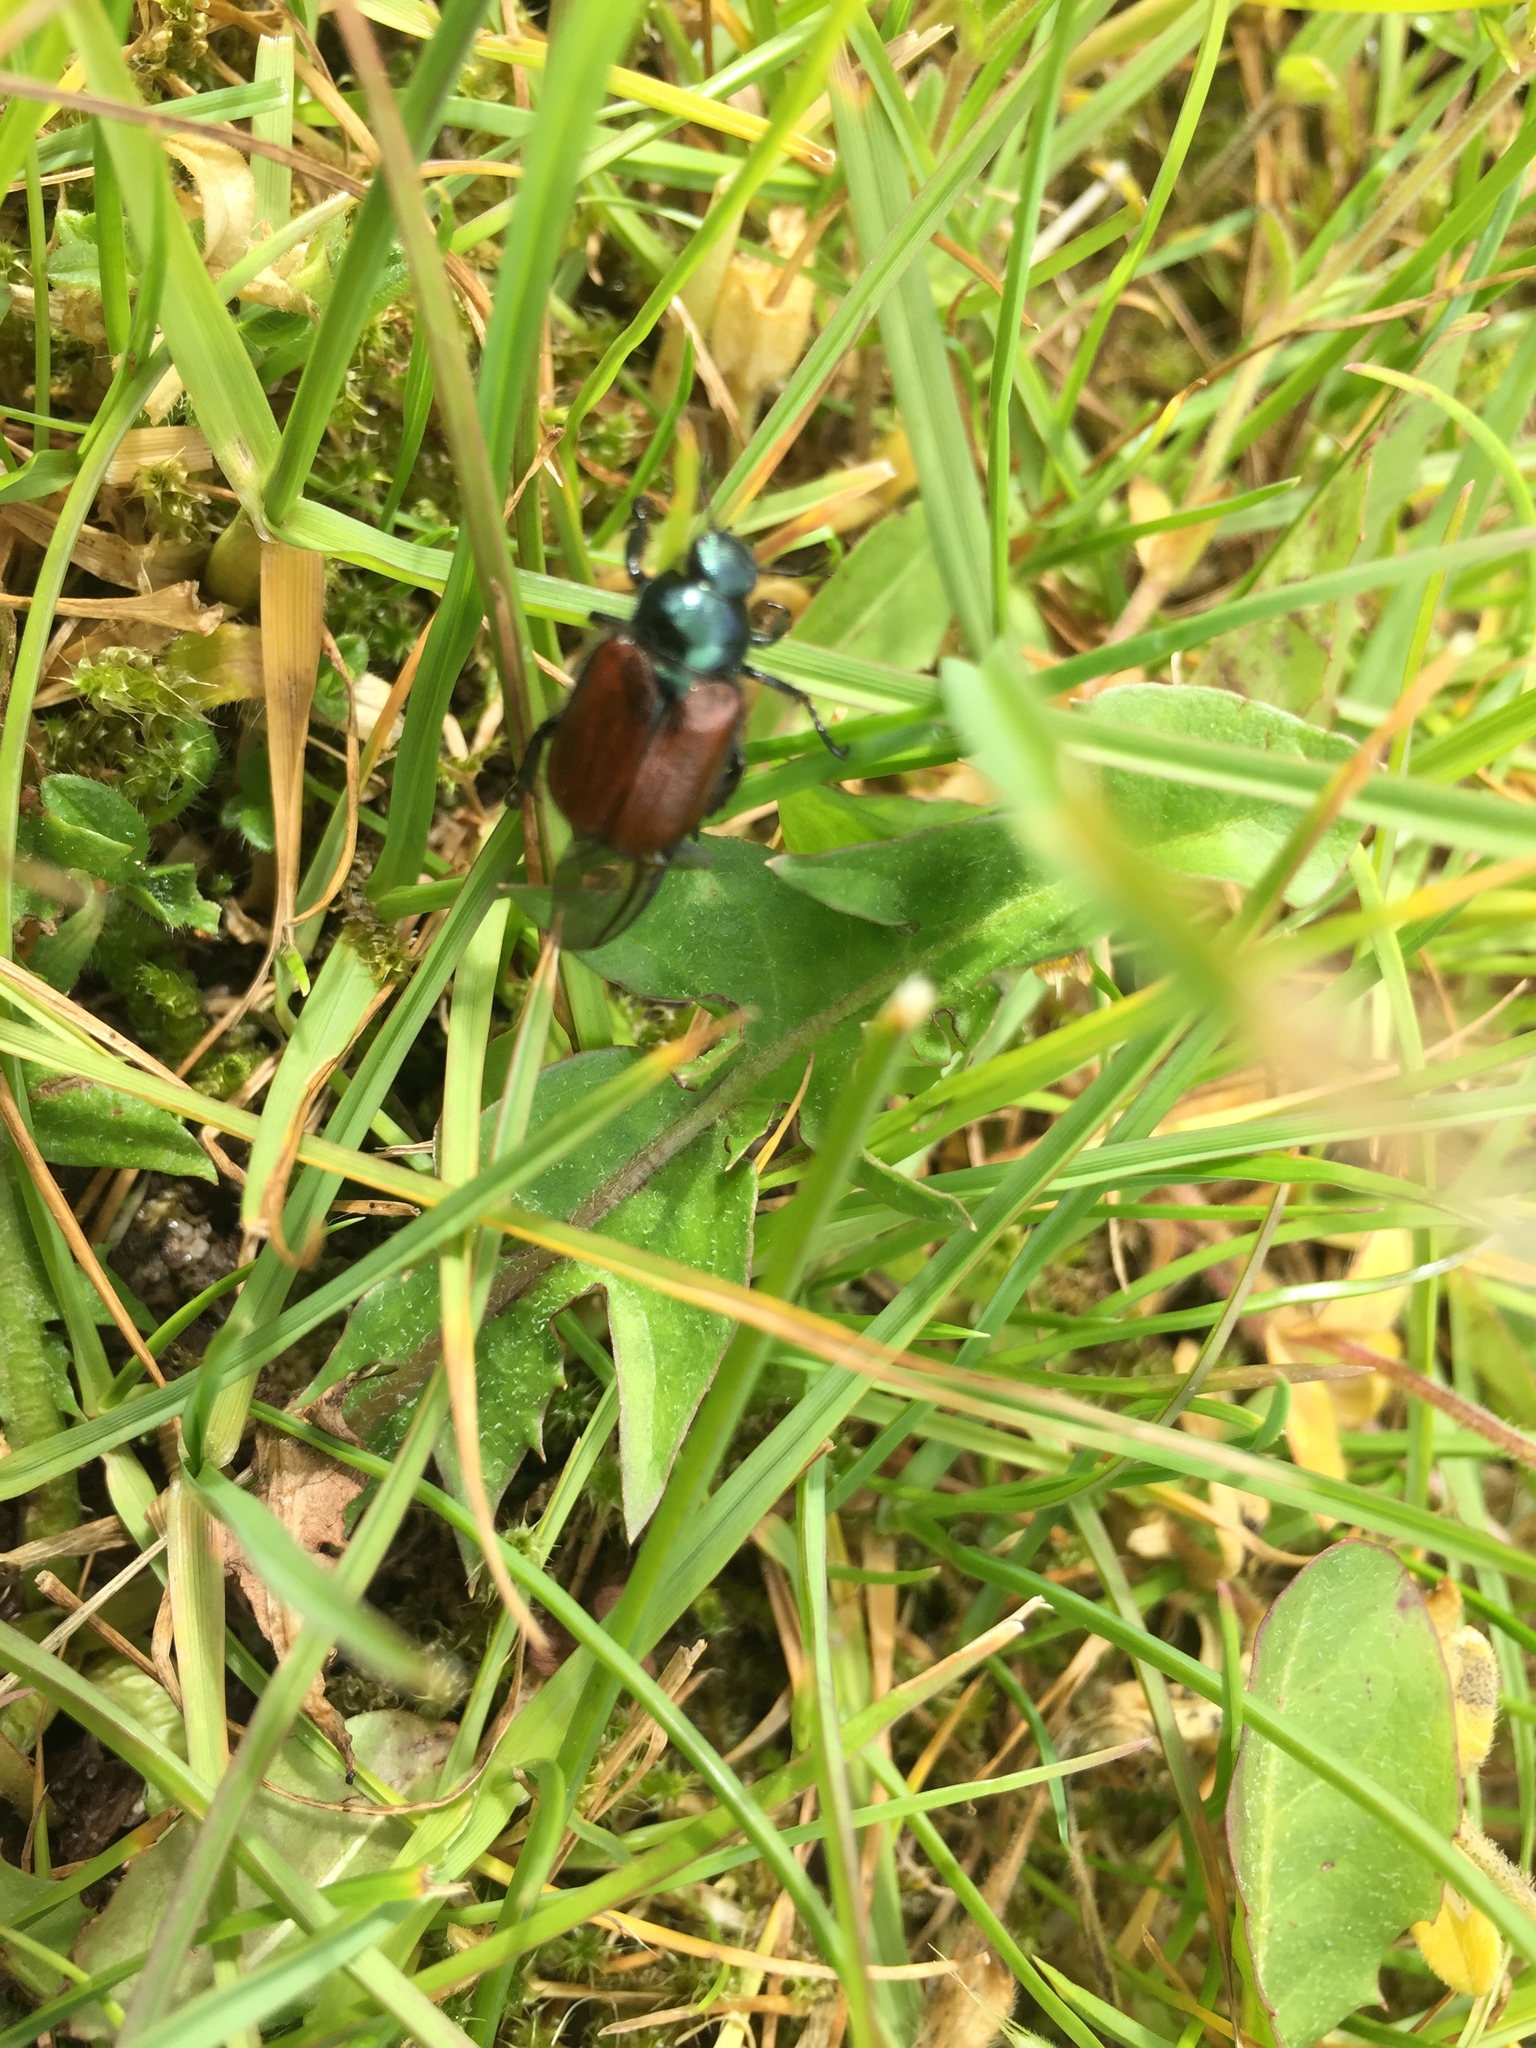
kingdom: Animalia
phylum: Arthropoda
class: Insecta
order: Coleoptera
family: Scarabaeidae
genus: Phyllopertha
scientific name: Phyllopertha horticola
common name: Garden chafer
